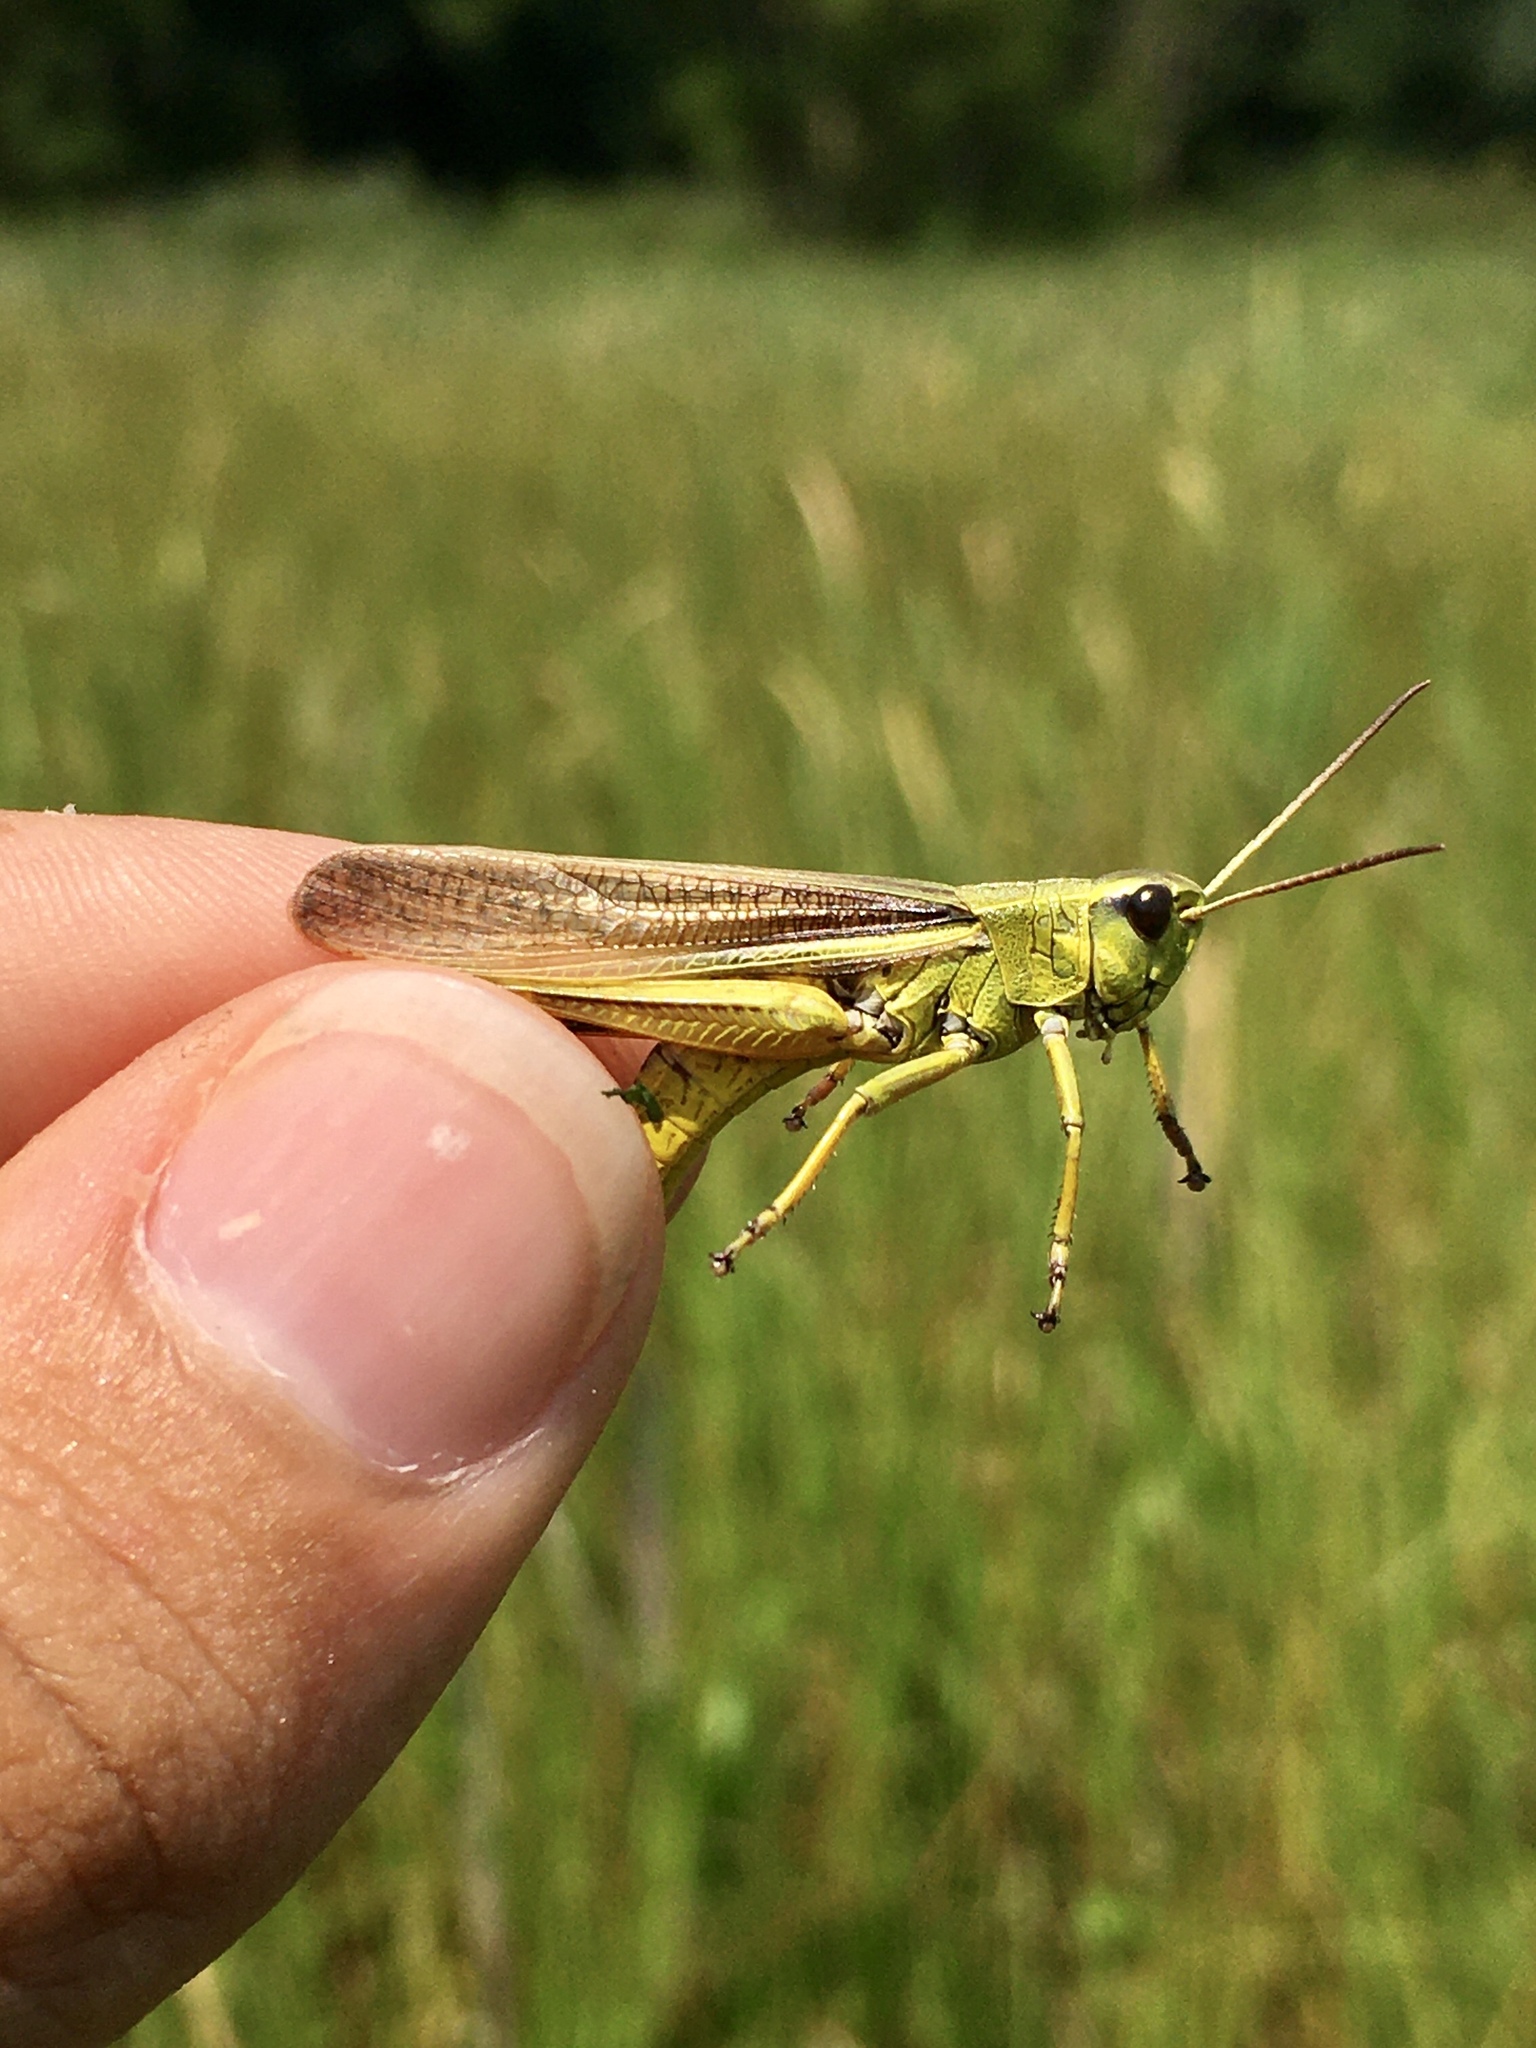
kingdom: Animalia
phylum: Arthropoda
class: Insecta
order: Orthoptera
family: Acrididae
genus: Stethophyma
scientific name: Stethophyma lineatum
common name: Striped sedge locust
